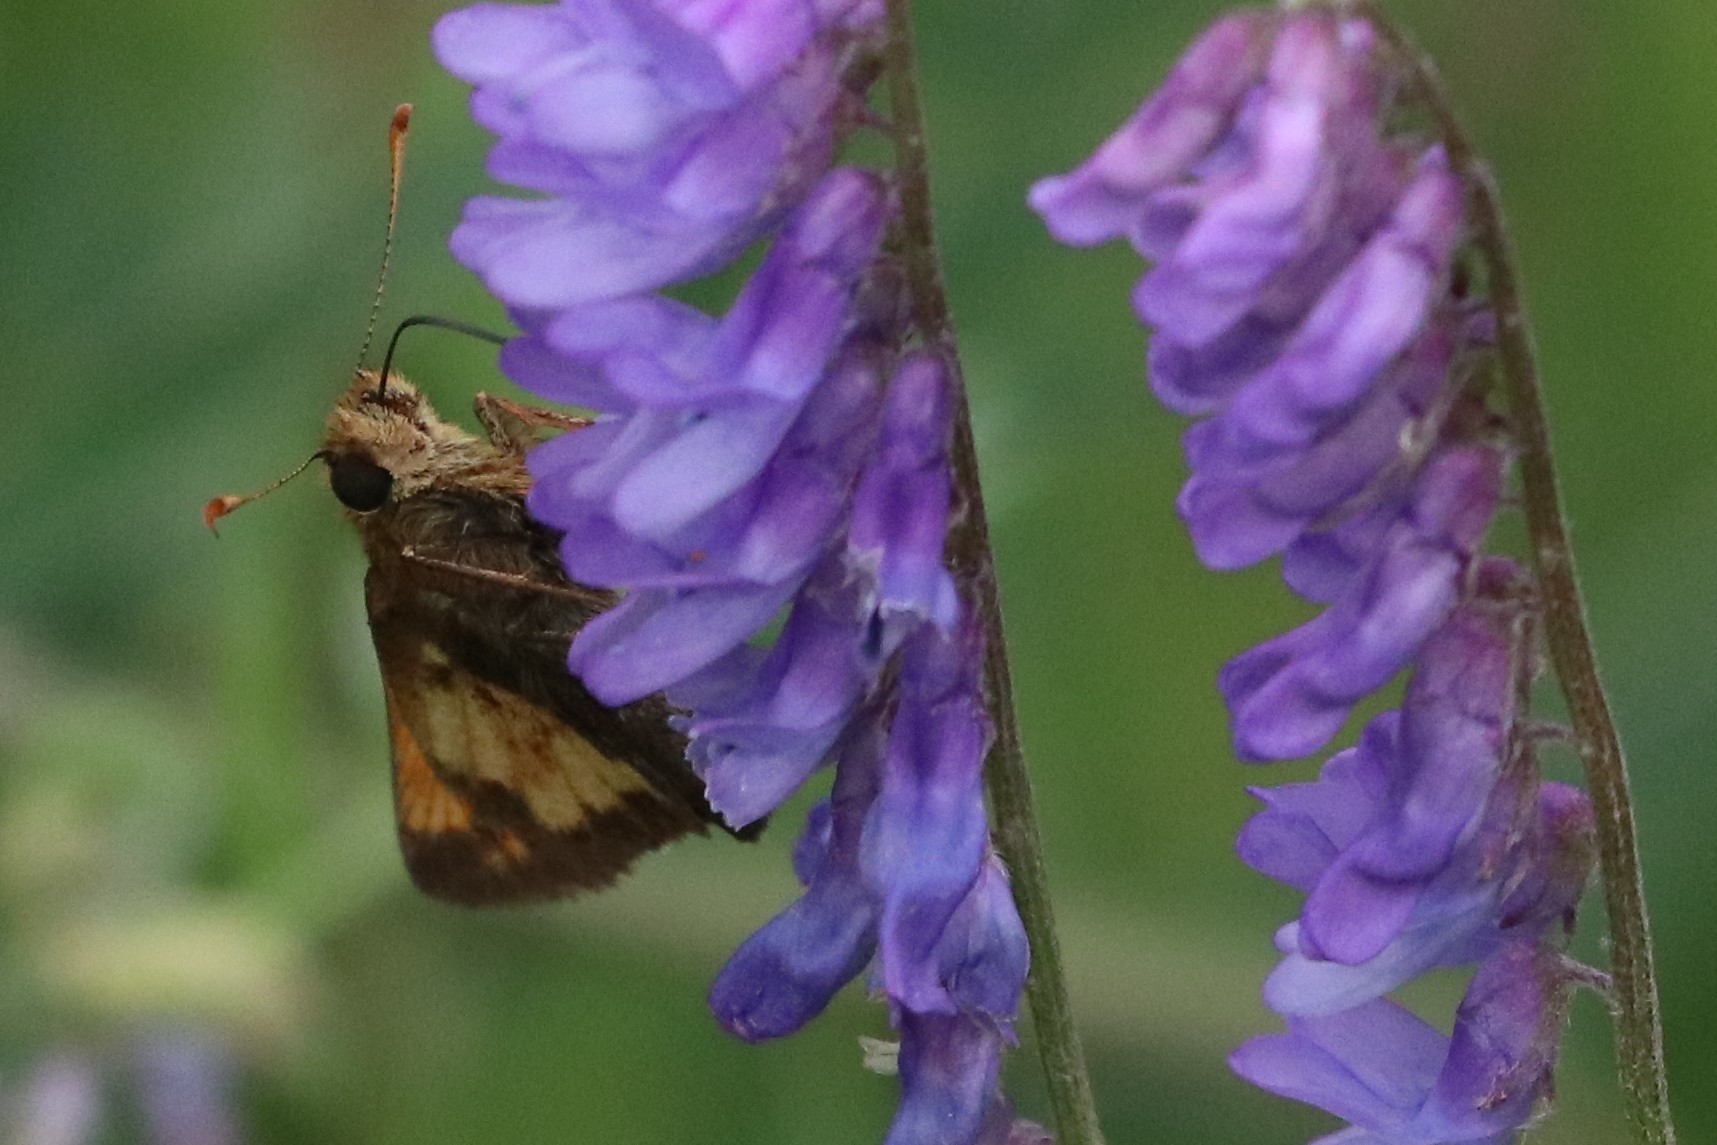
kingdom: Animalia
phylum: Arthropoda
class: Insecta
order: Lepidoptera
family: Hesperiidae
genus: Lon
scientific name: Lon hobomok
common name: Hobomok skipper
